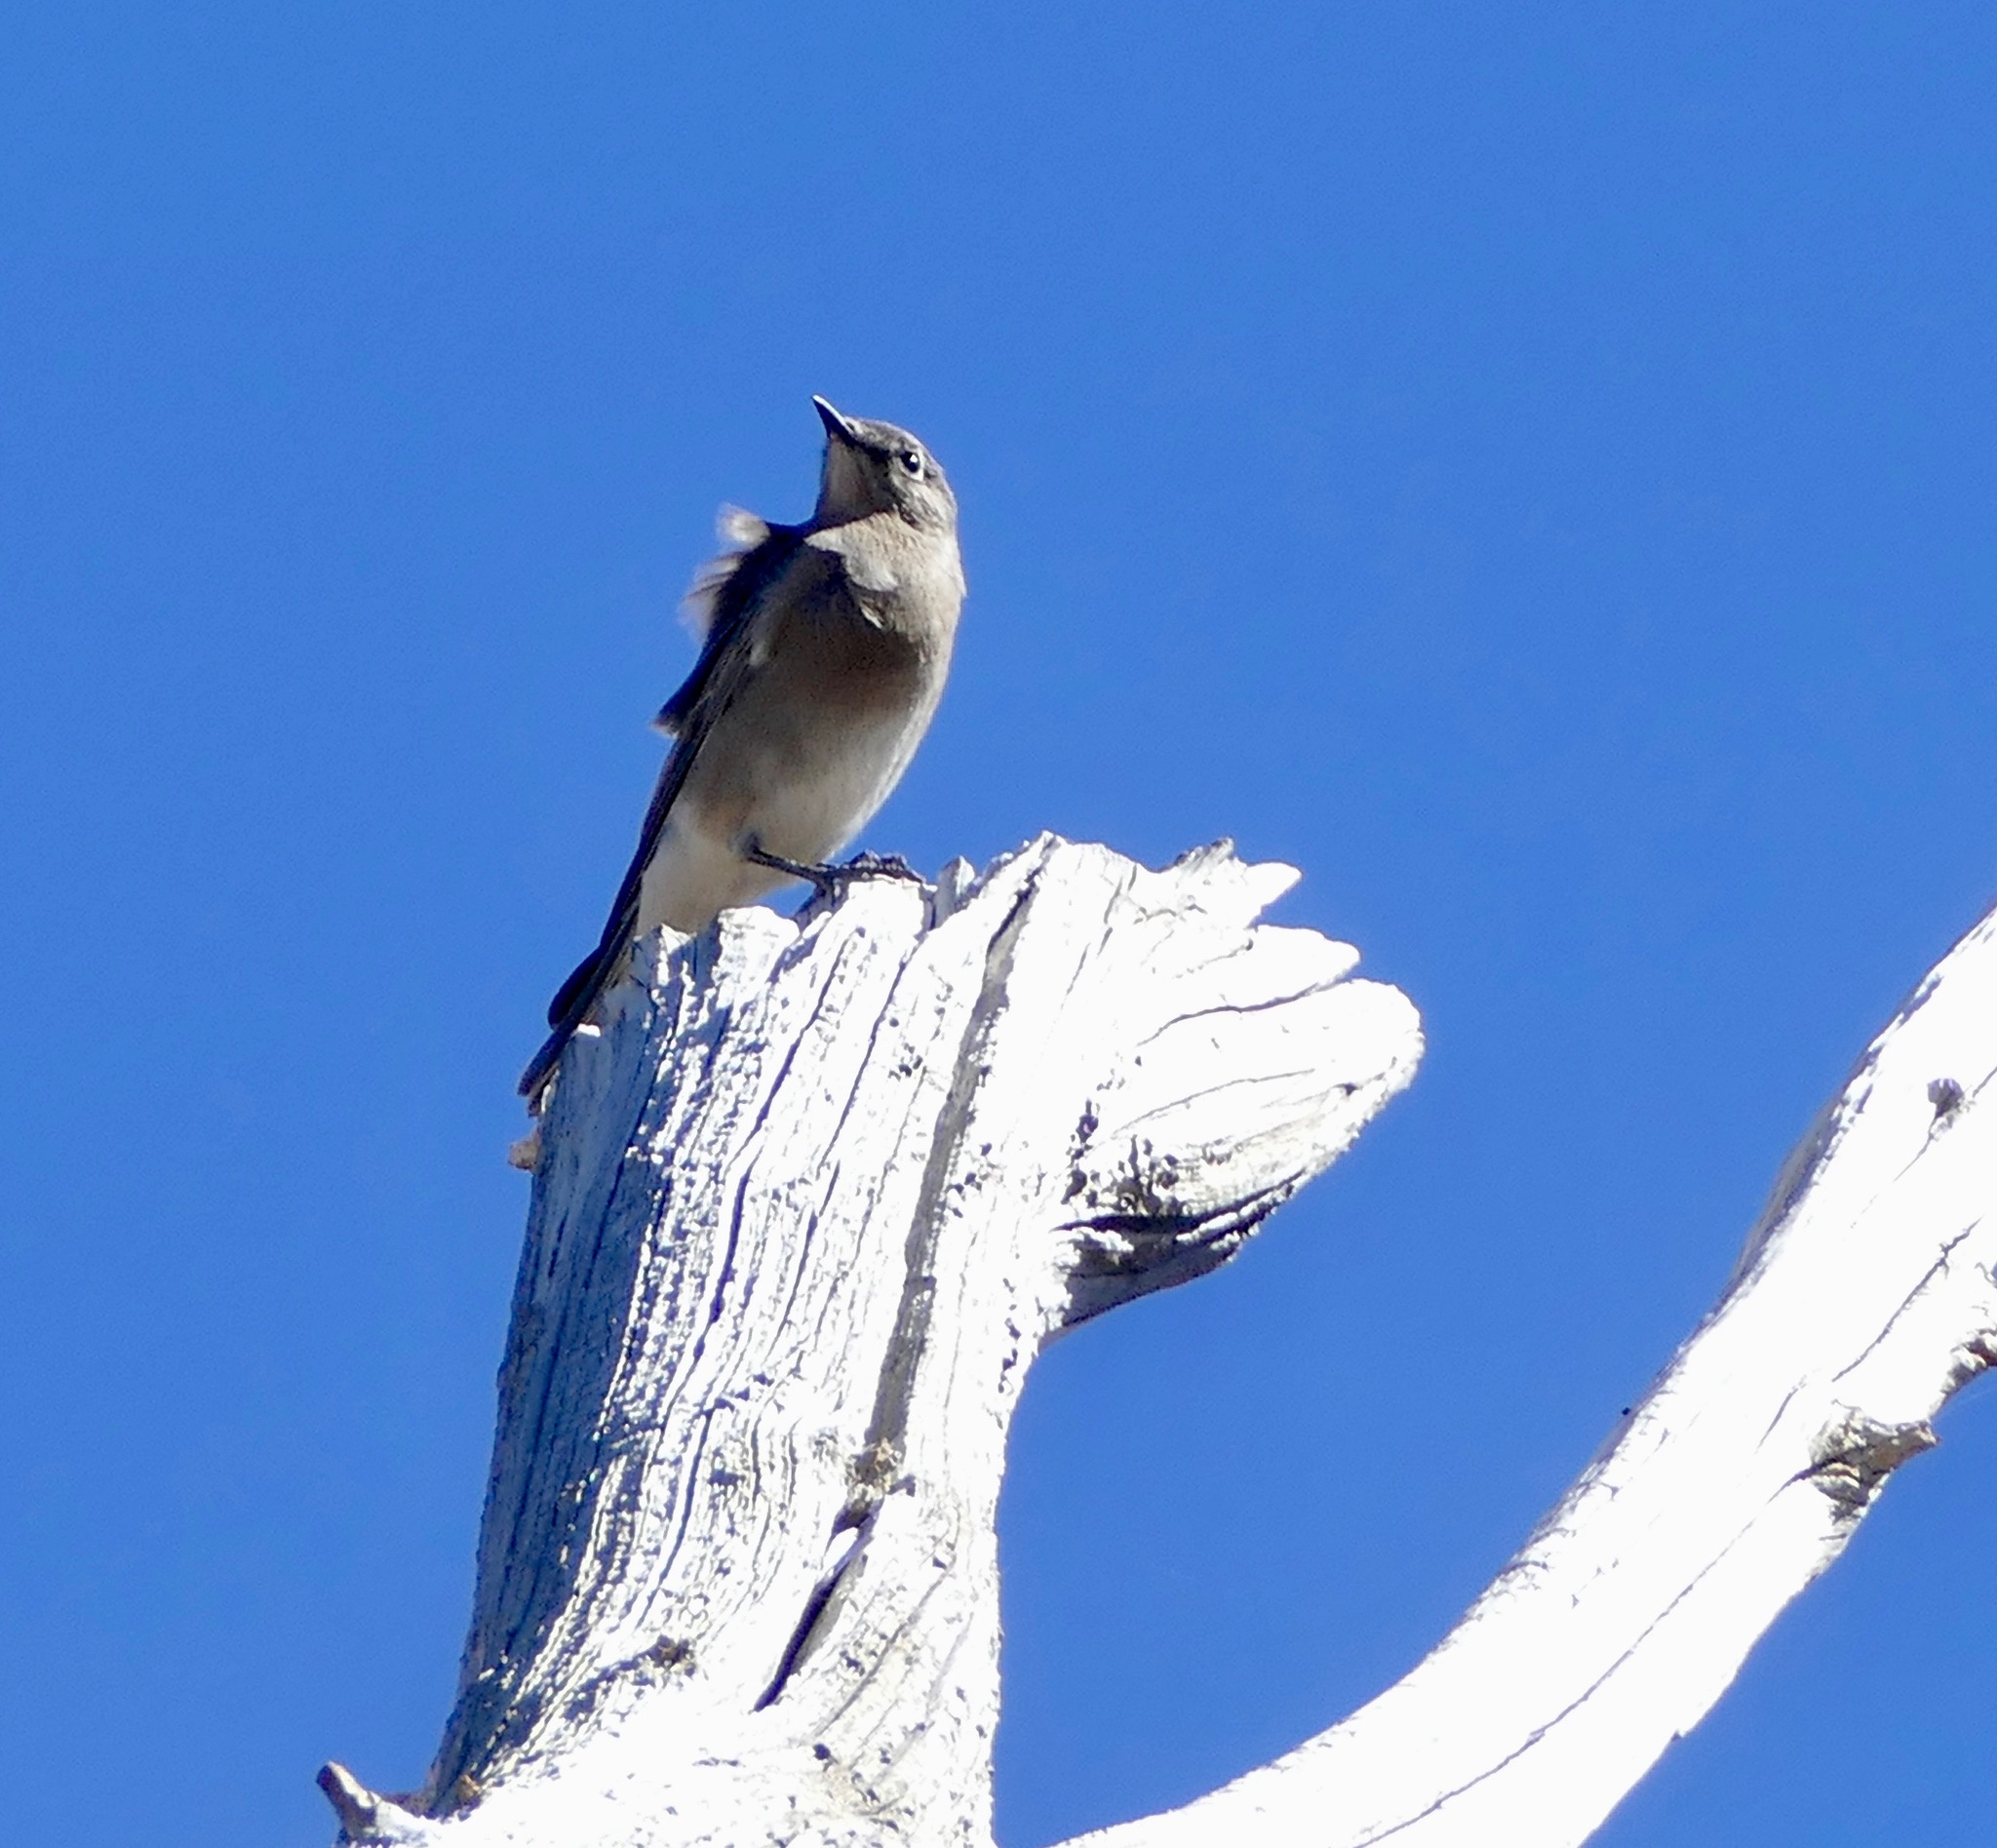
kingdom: Animalia
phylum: Chordata
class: Aves
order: Passeriformes
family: Turdidae
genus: Sialia
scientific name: Sialia currucoides
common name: Mountain bluebird
